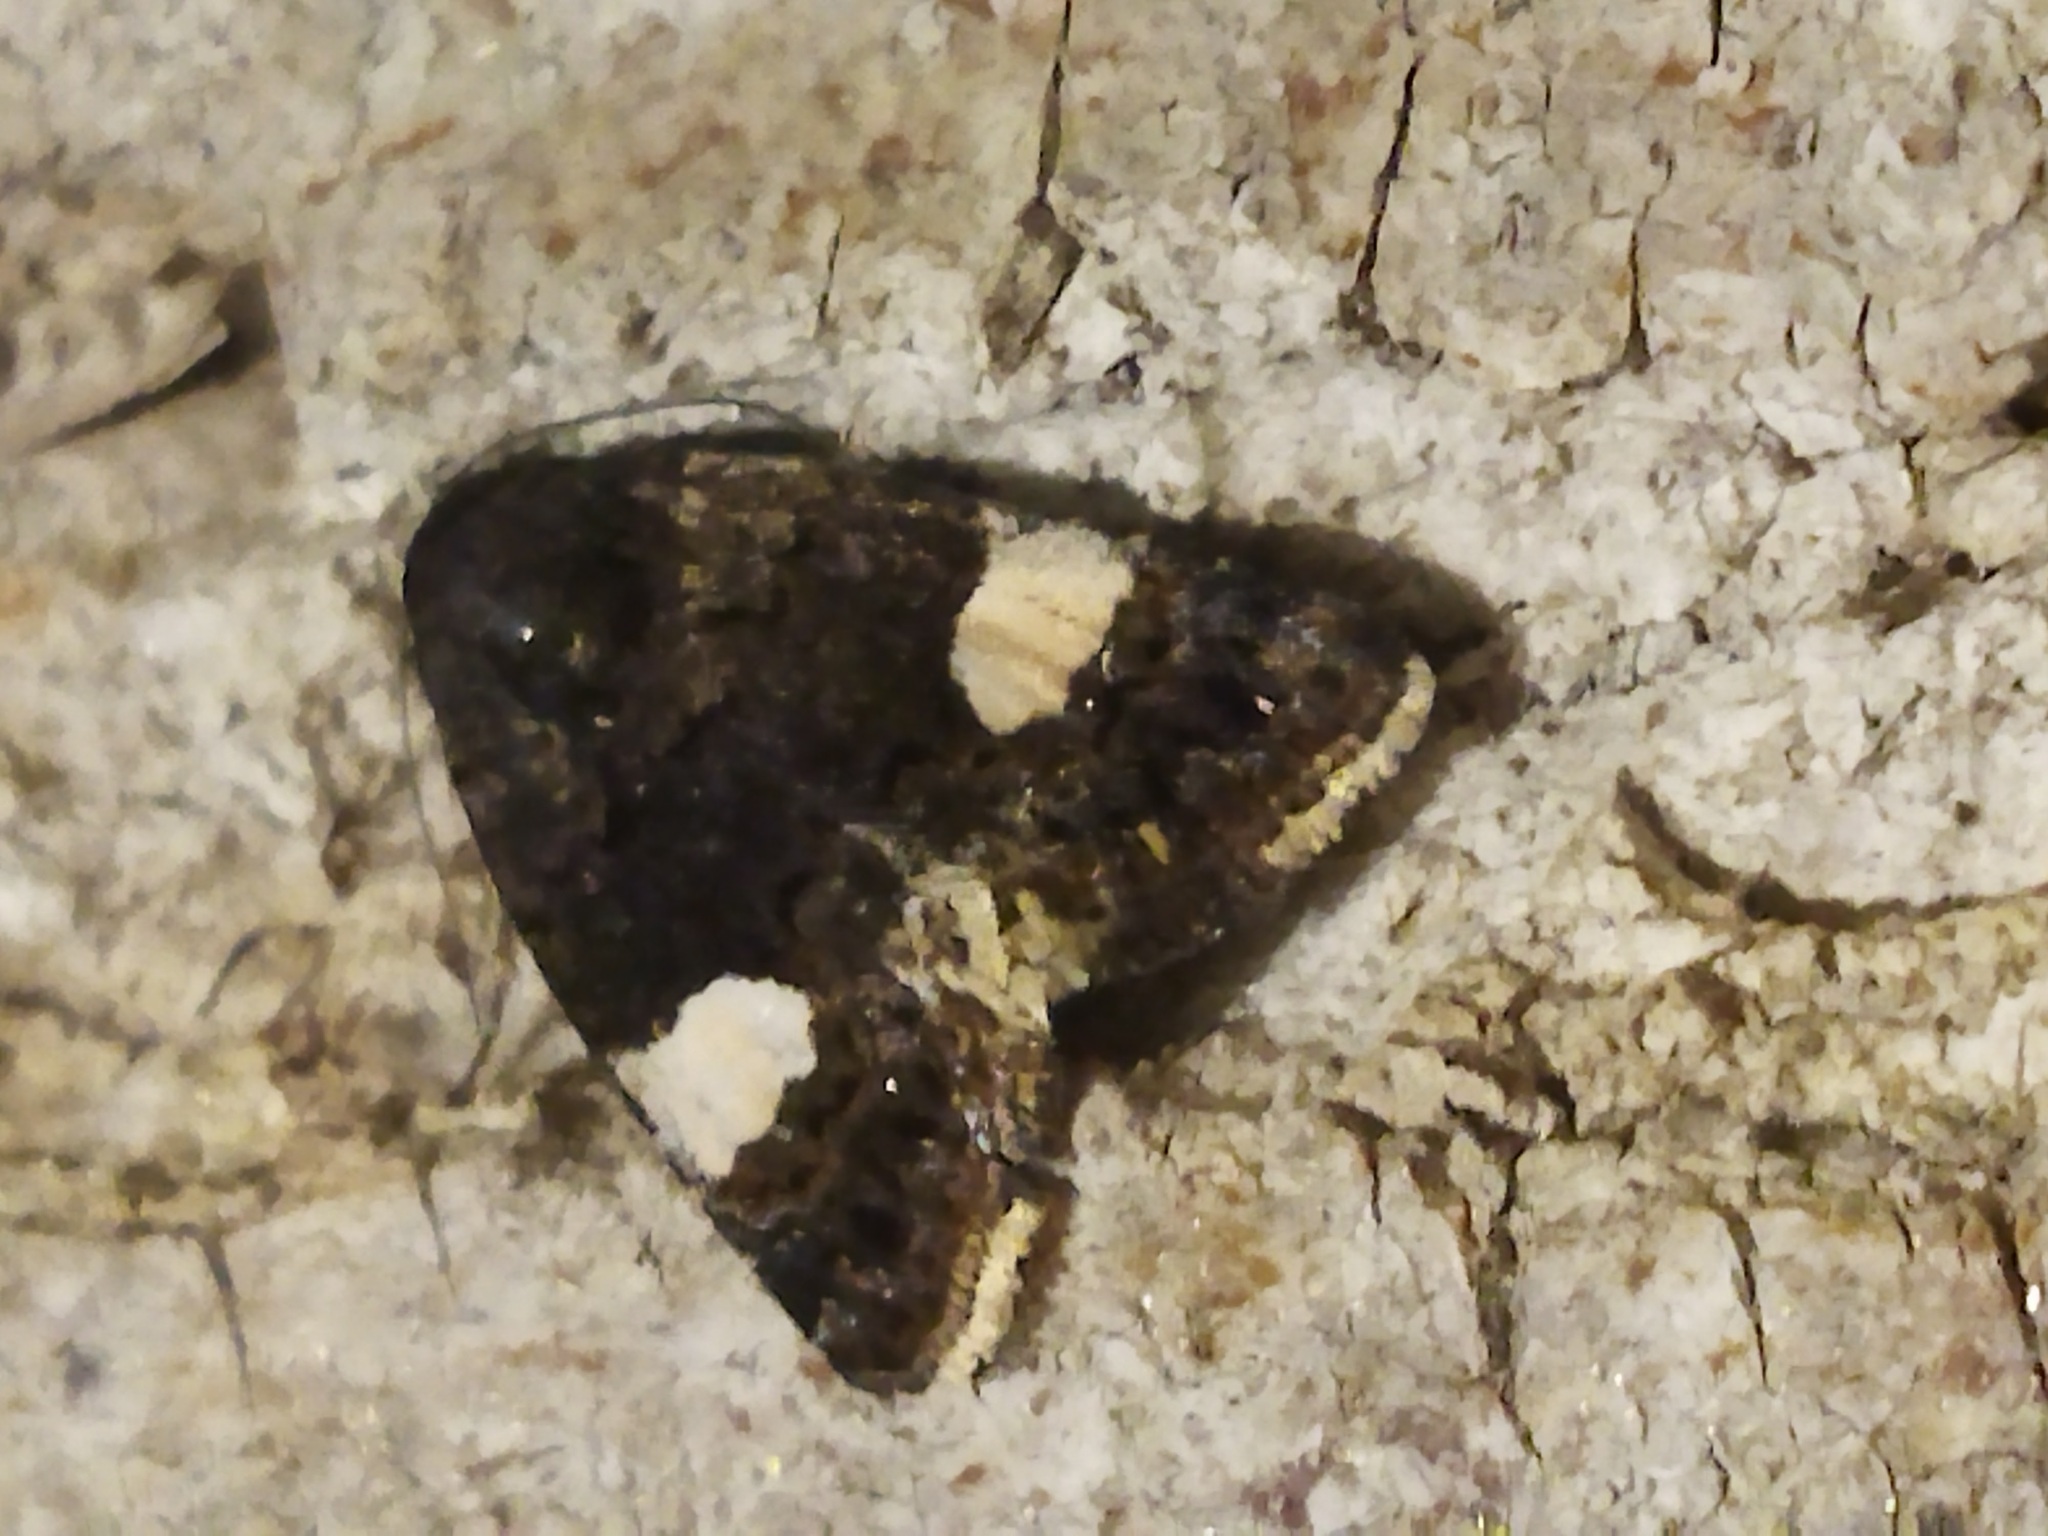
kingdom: Animalia
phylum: Arthropoda
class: Insecta
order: Lepidoptera
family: Erebidae
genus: Tyta
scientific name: Tyta luctuosa
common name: Four-spotted
